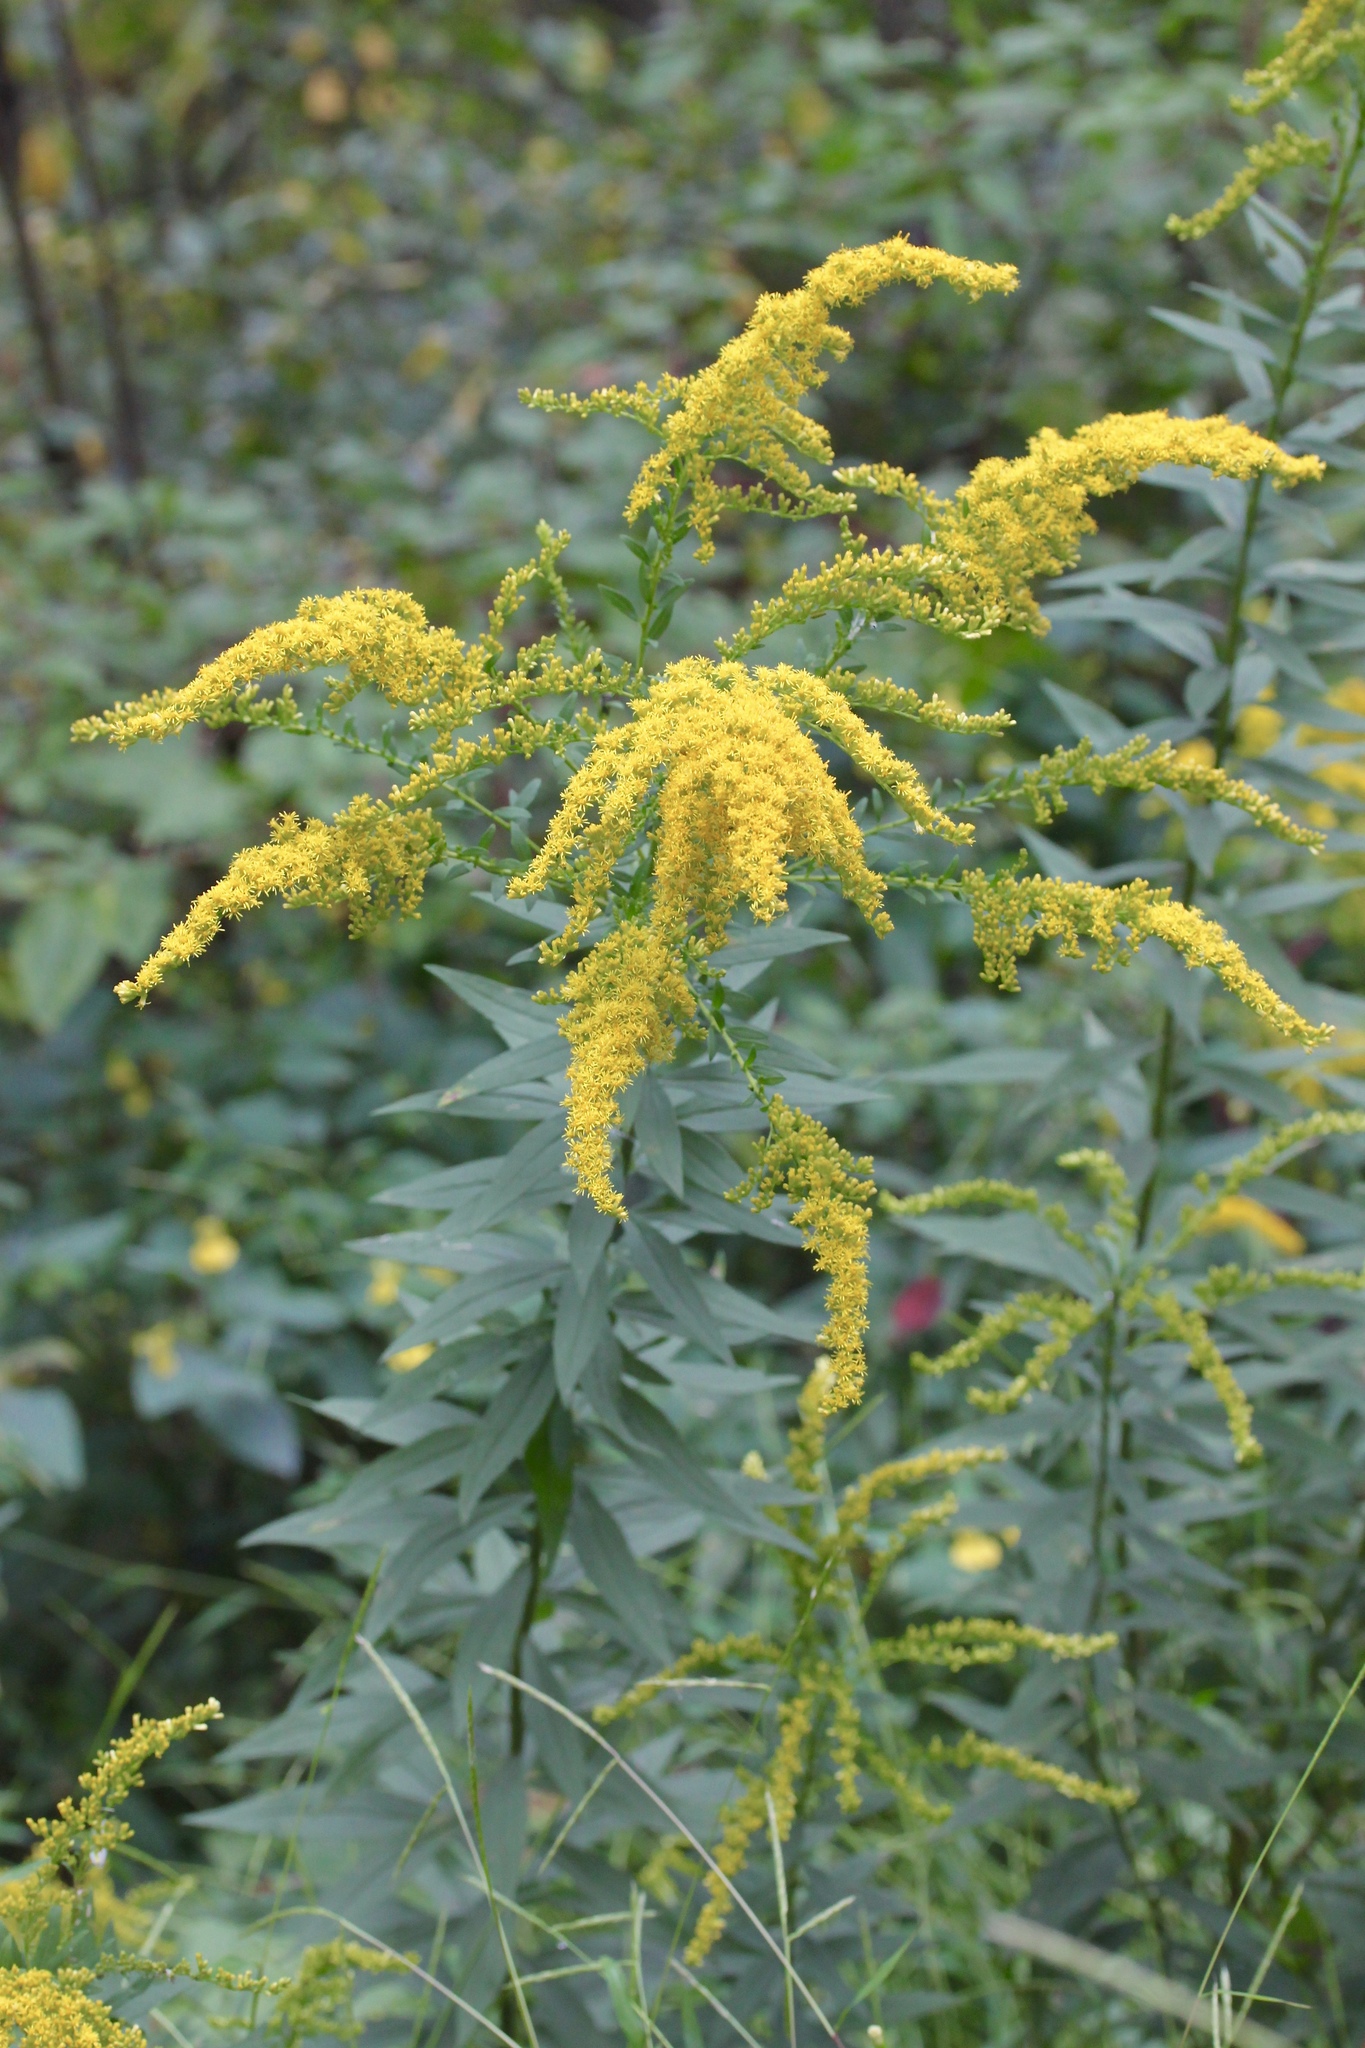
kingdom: Plantae
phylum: Tracheophyta
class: Magnoliopsida
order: Asterales
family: Asteraceae
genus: Solidago
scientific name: Solidago canadensis
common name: Canada goldenrod
